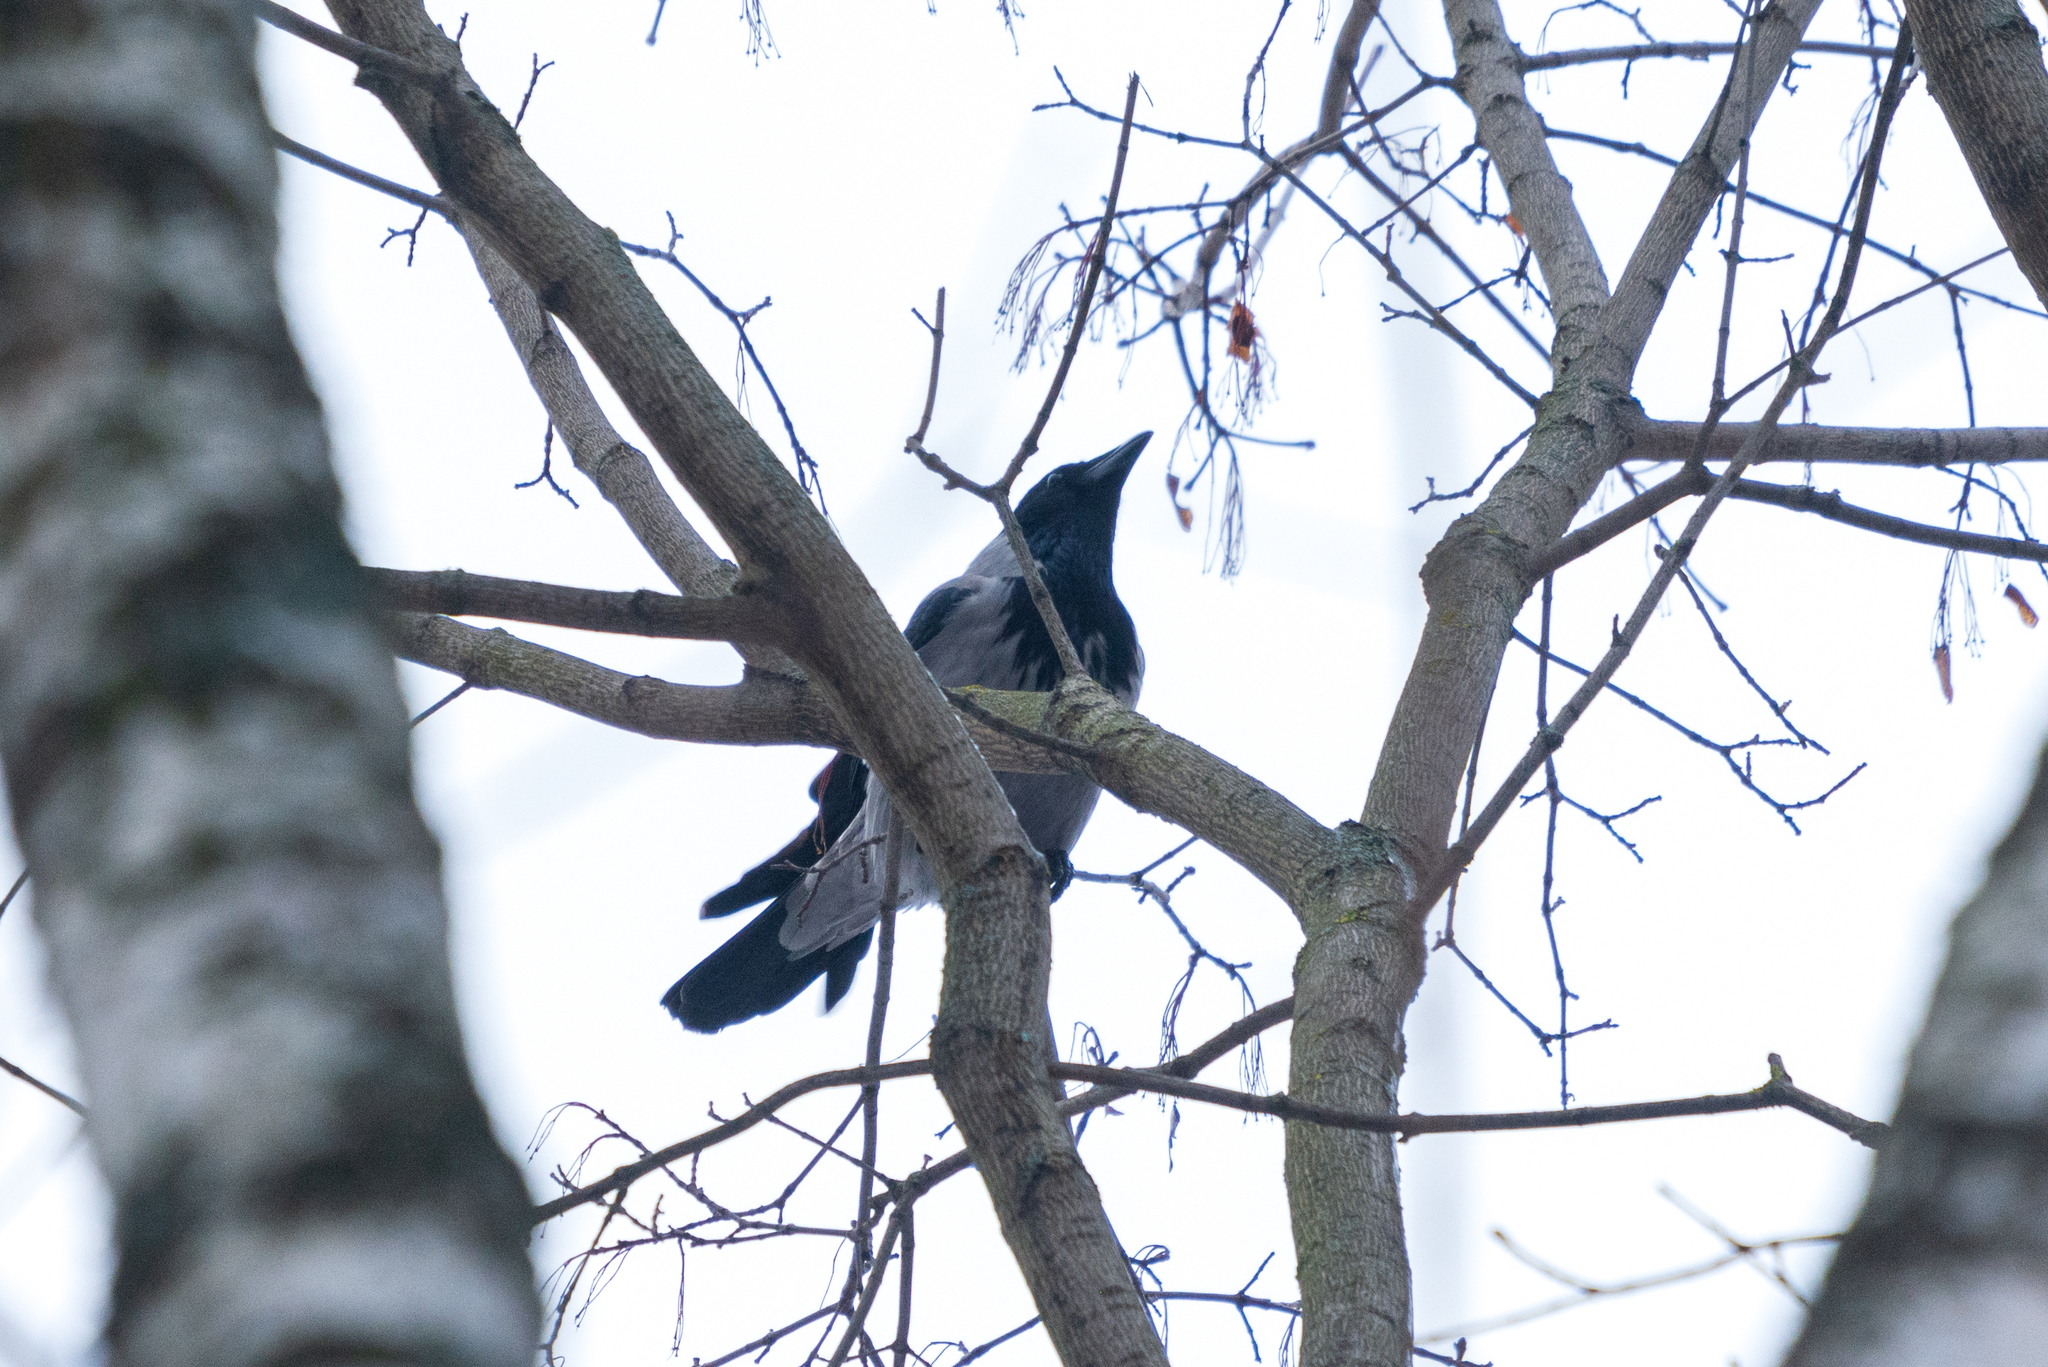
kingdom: Animalia
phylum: Chordata
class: Aves
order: Passeriformes
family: Corvidae
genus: Corvus
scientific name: Corvus cornix
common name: Hooded crow
